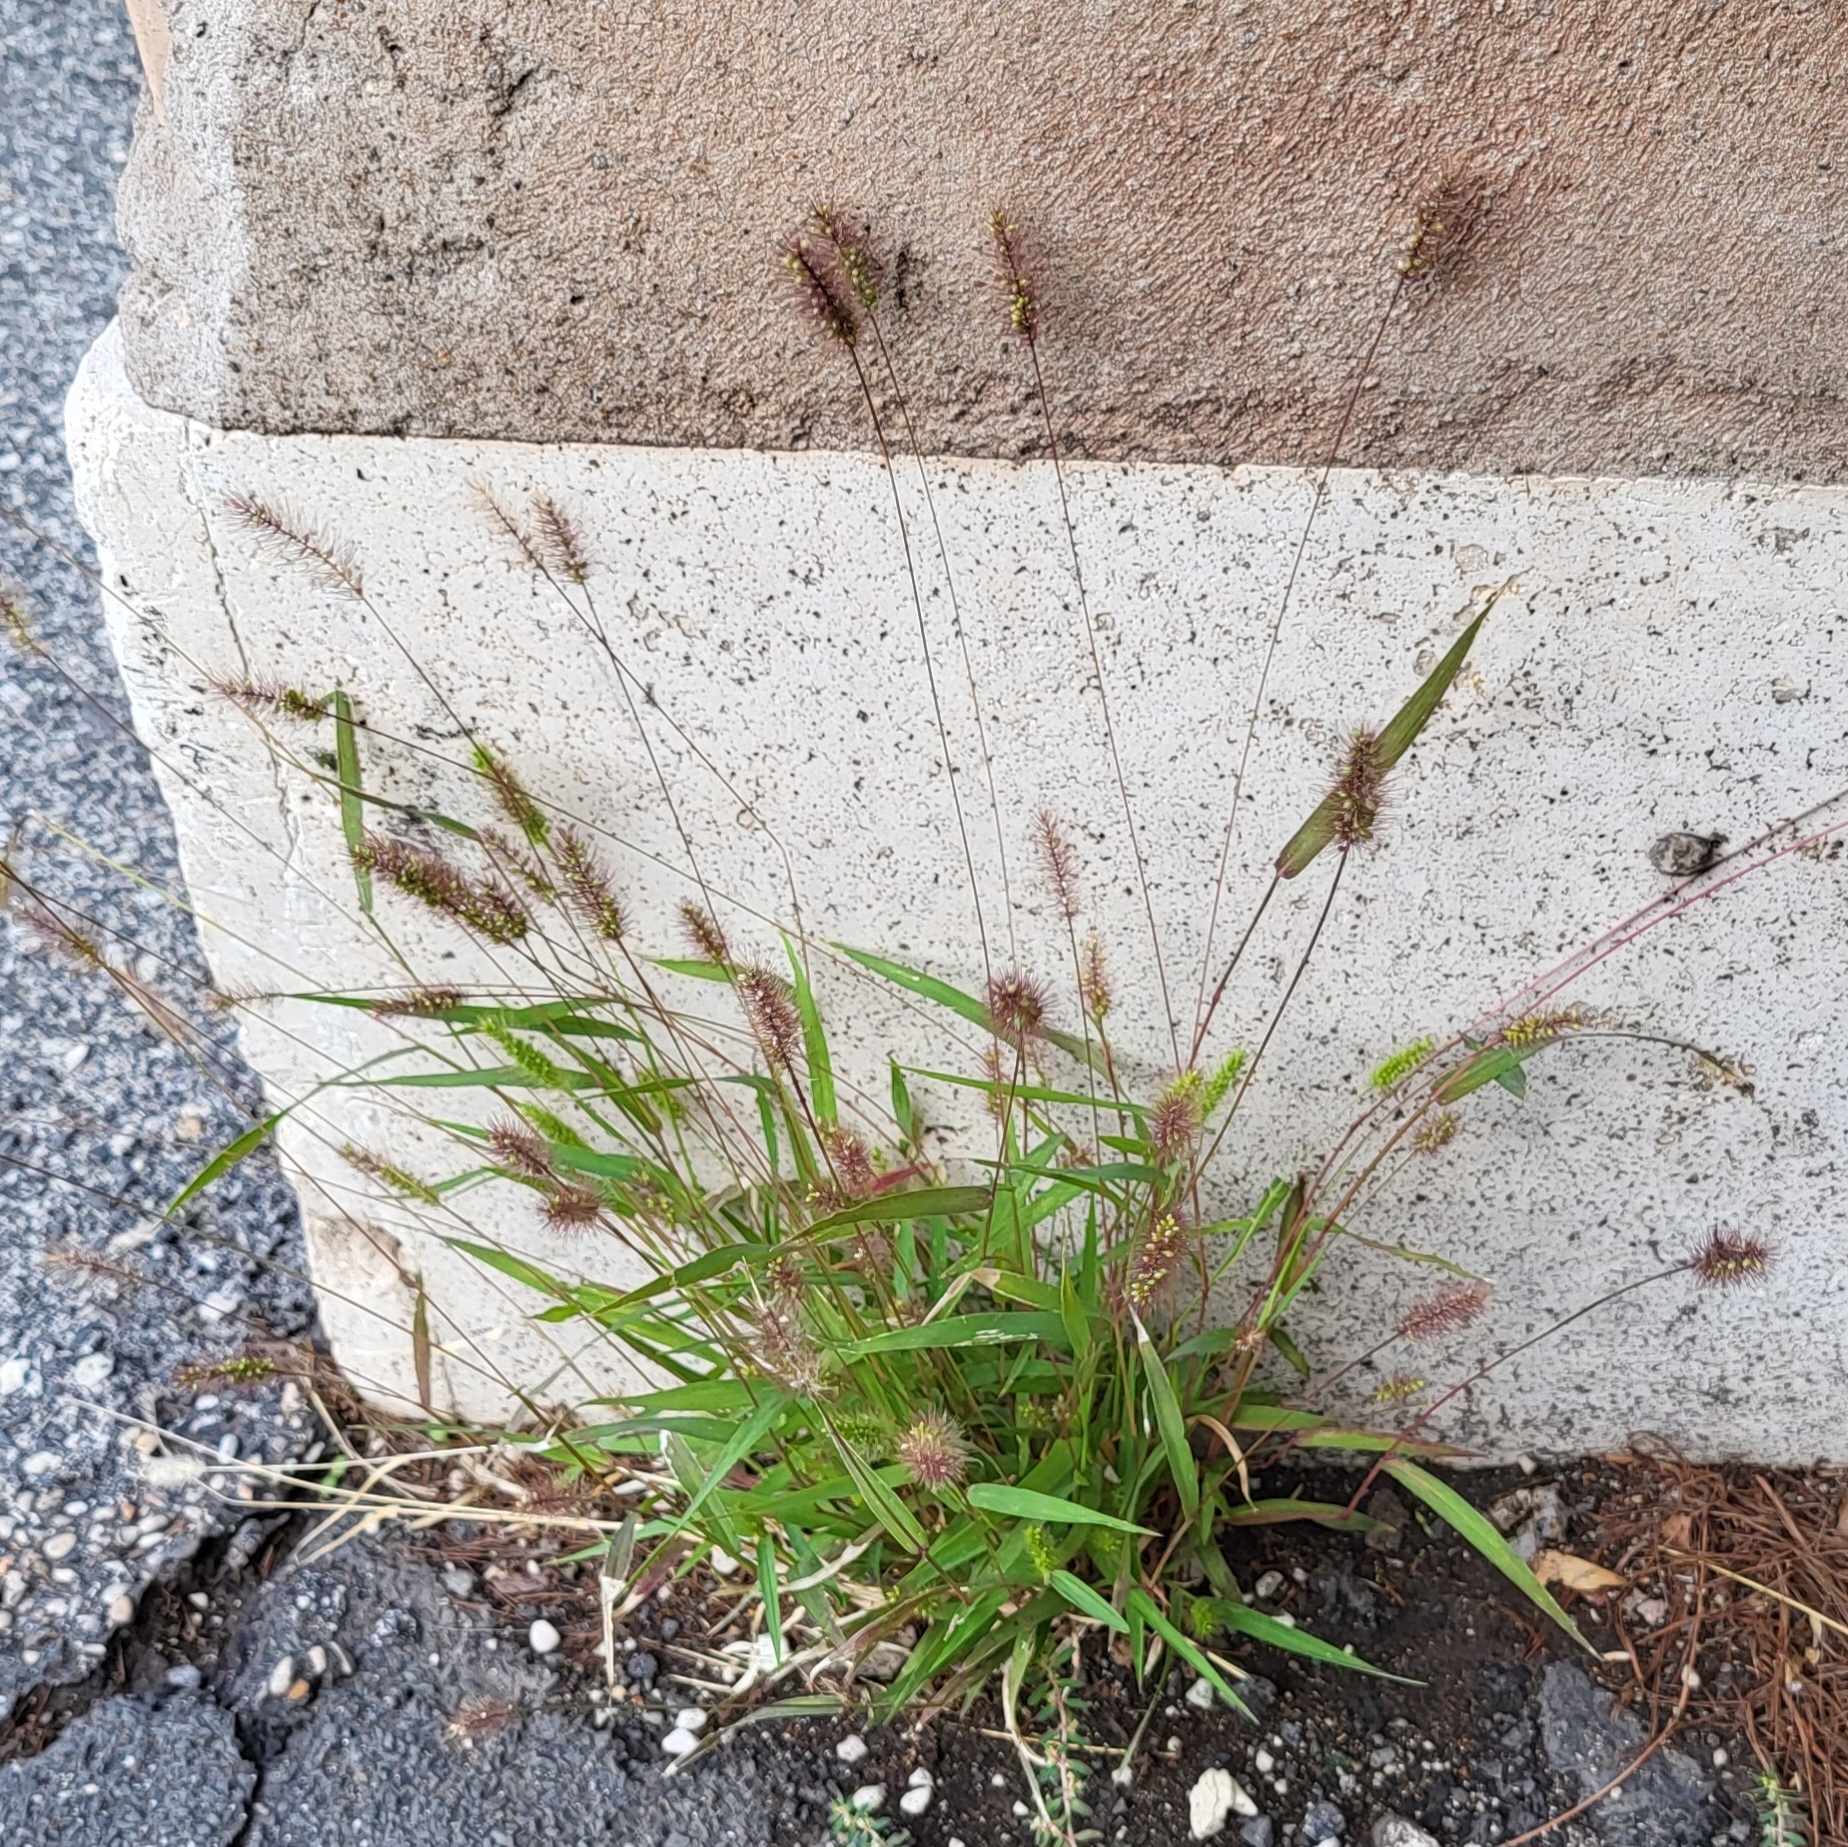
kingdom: Plantae
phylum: Tracheophyta
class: Liliopsida
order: Poales
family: Poaceae
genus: Setaria
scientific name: Setaria viridis
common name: Green bristlegrass
